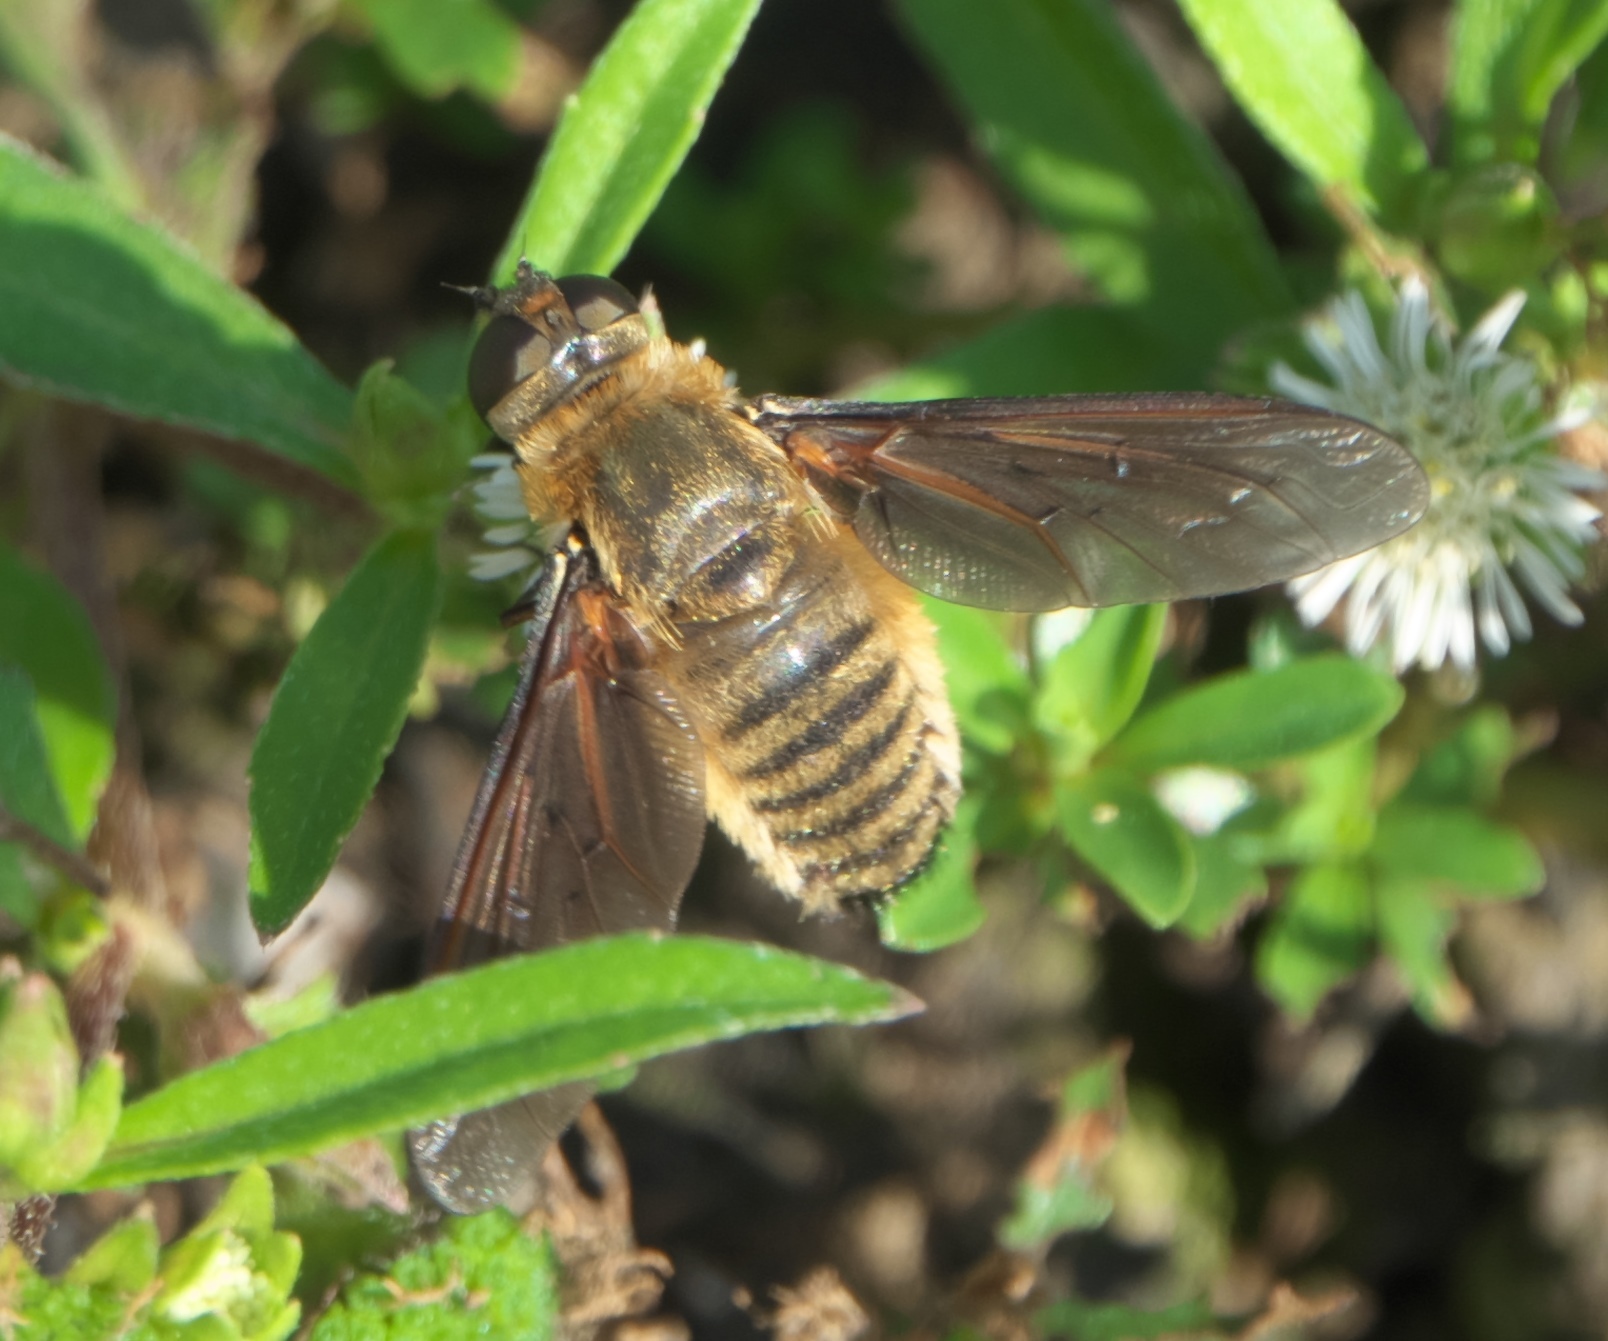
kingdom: Animalia
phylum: Arthropoda
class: Insecta
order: Diptera
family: Bombyliidae
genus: Poecilanthrax
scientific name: Poecilanthrax lucifer
